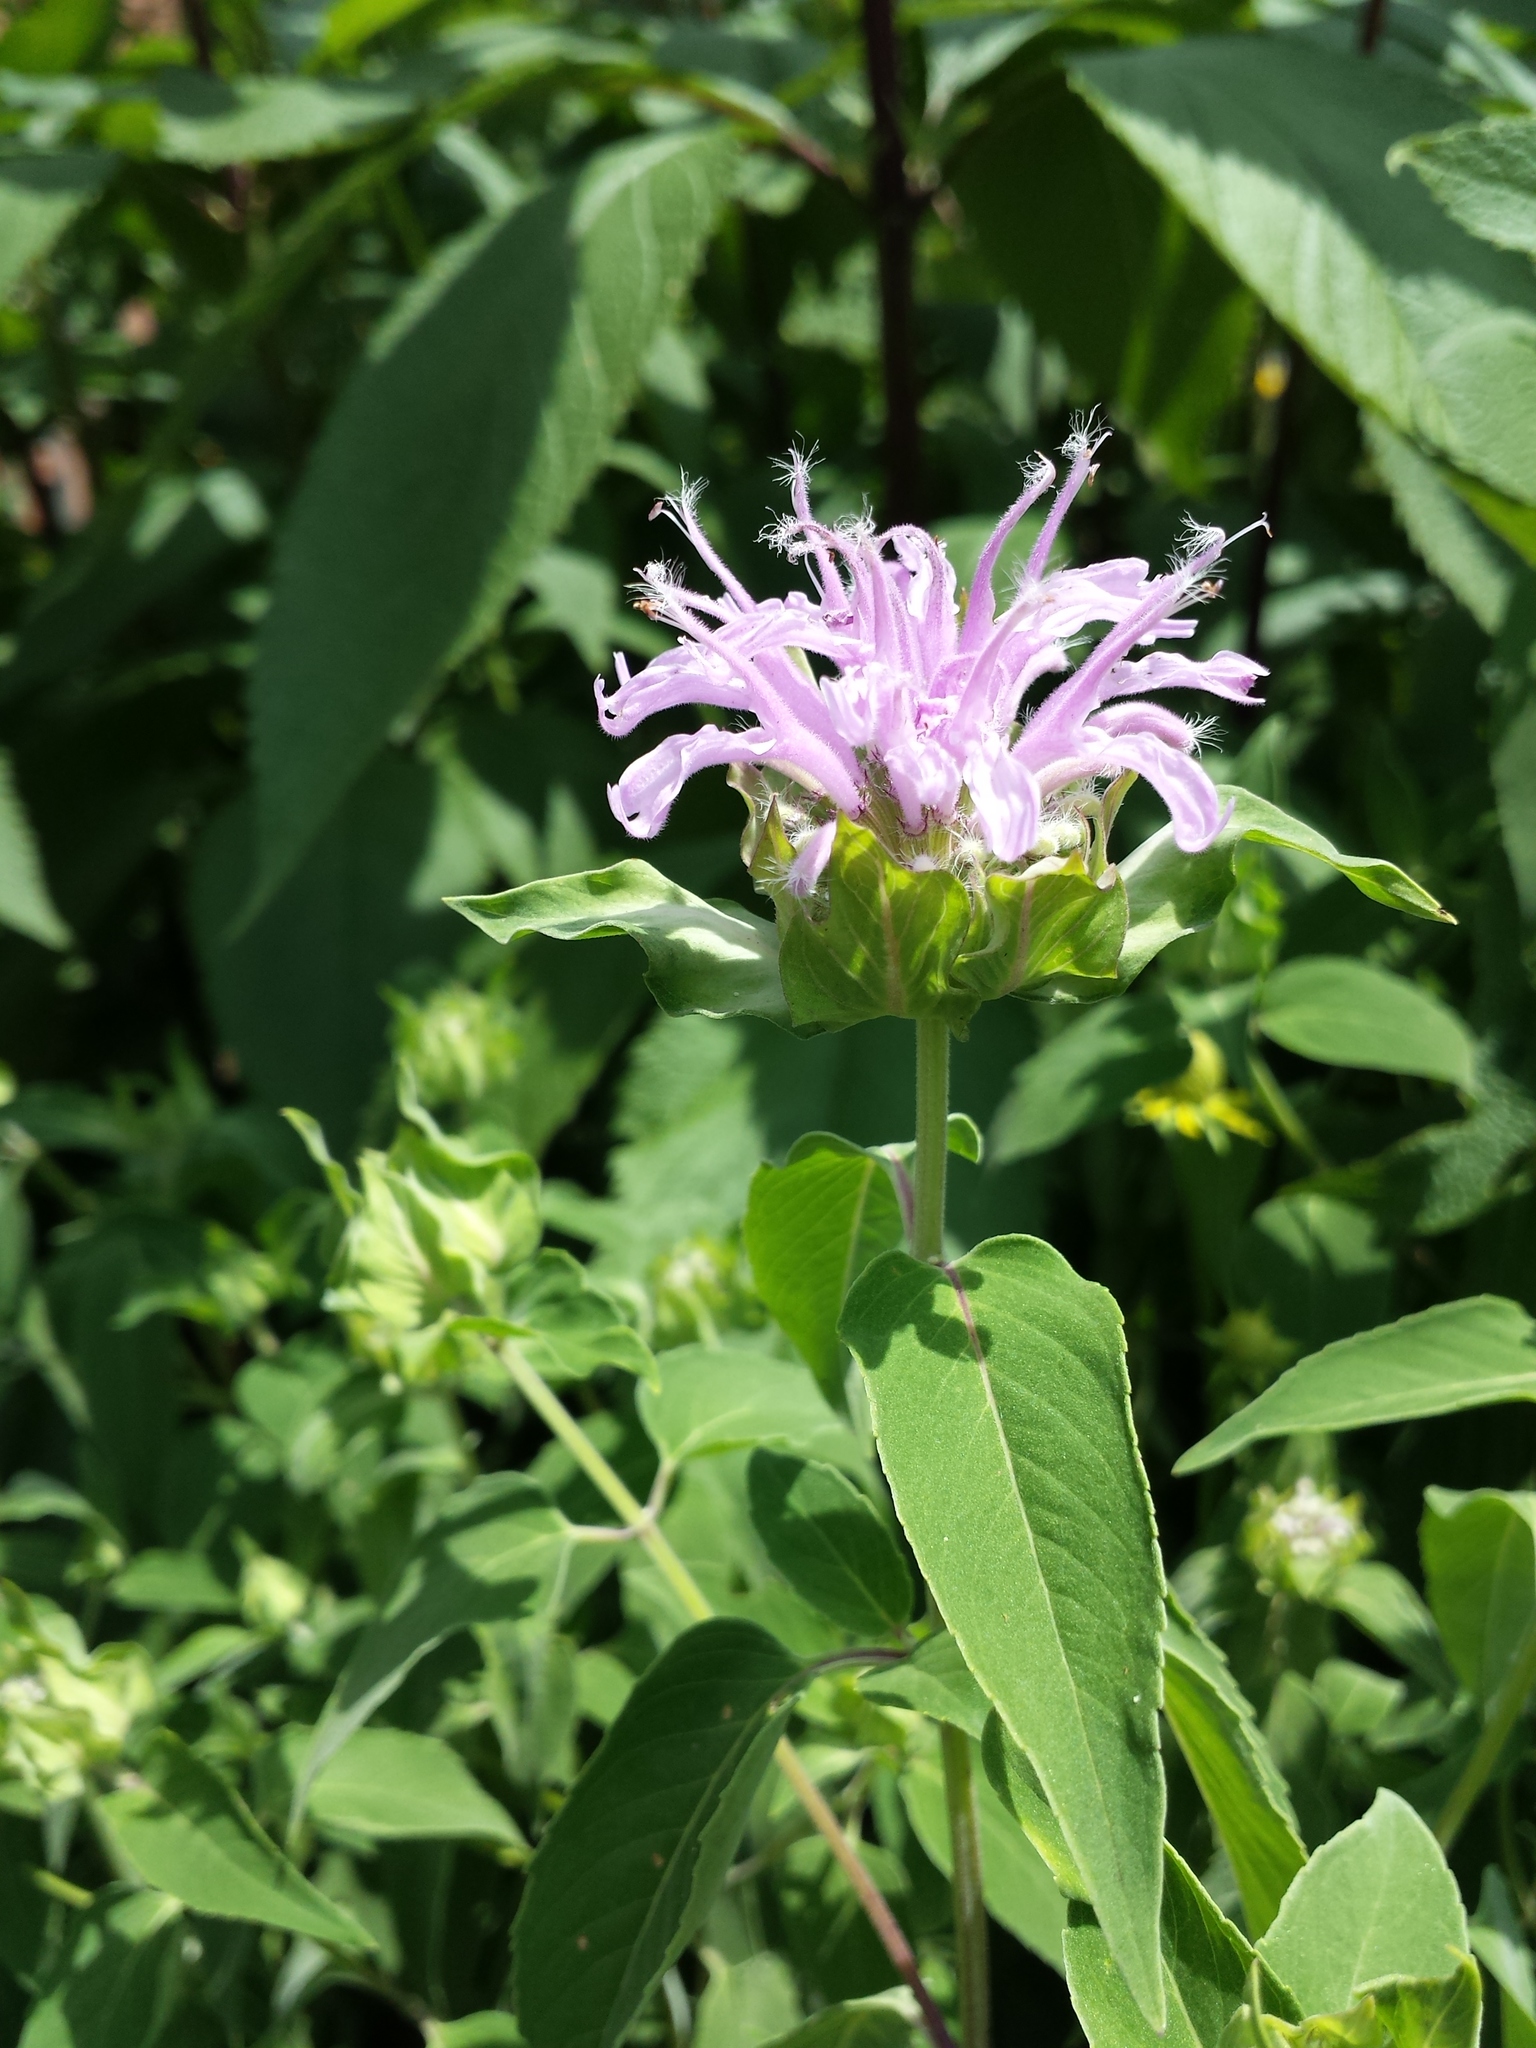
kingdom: Plantae
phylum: Tracheophyta
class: Magnoliopsida
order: Lamiales
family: Lamiaceae
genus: Monarda
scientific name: Monarda fistulosa
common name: Purple beebalm
